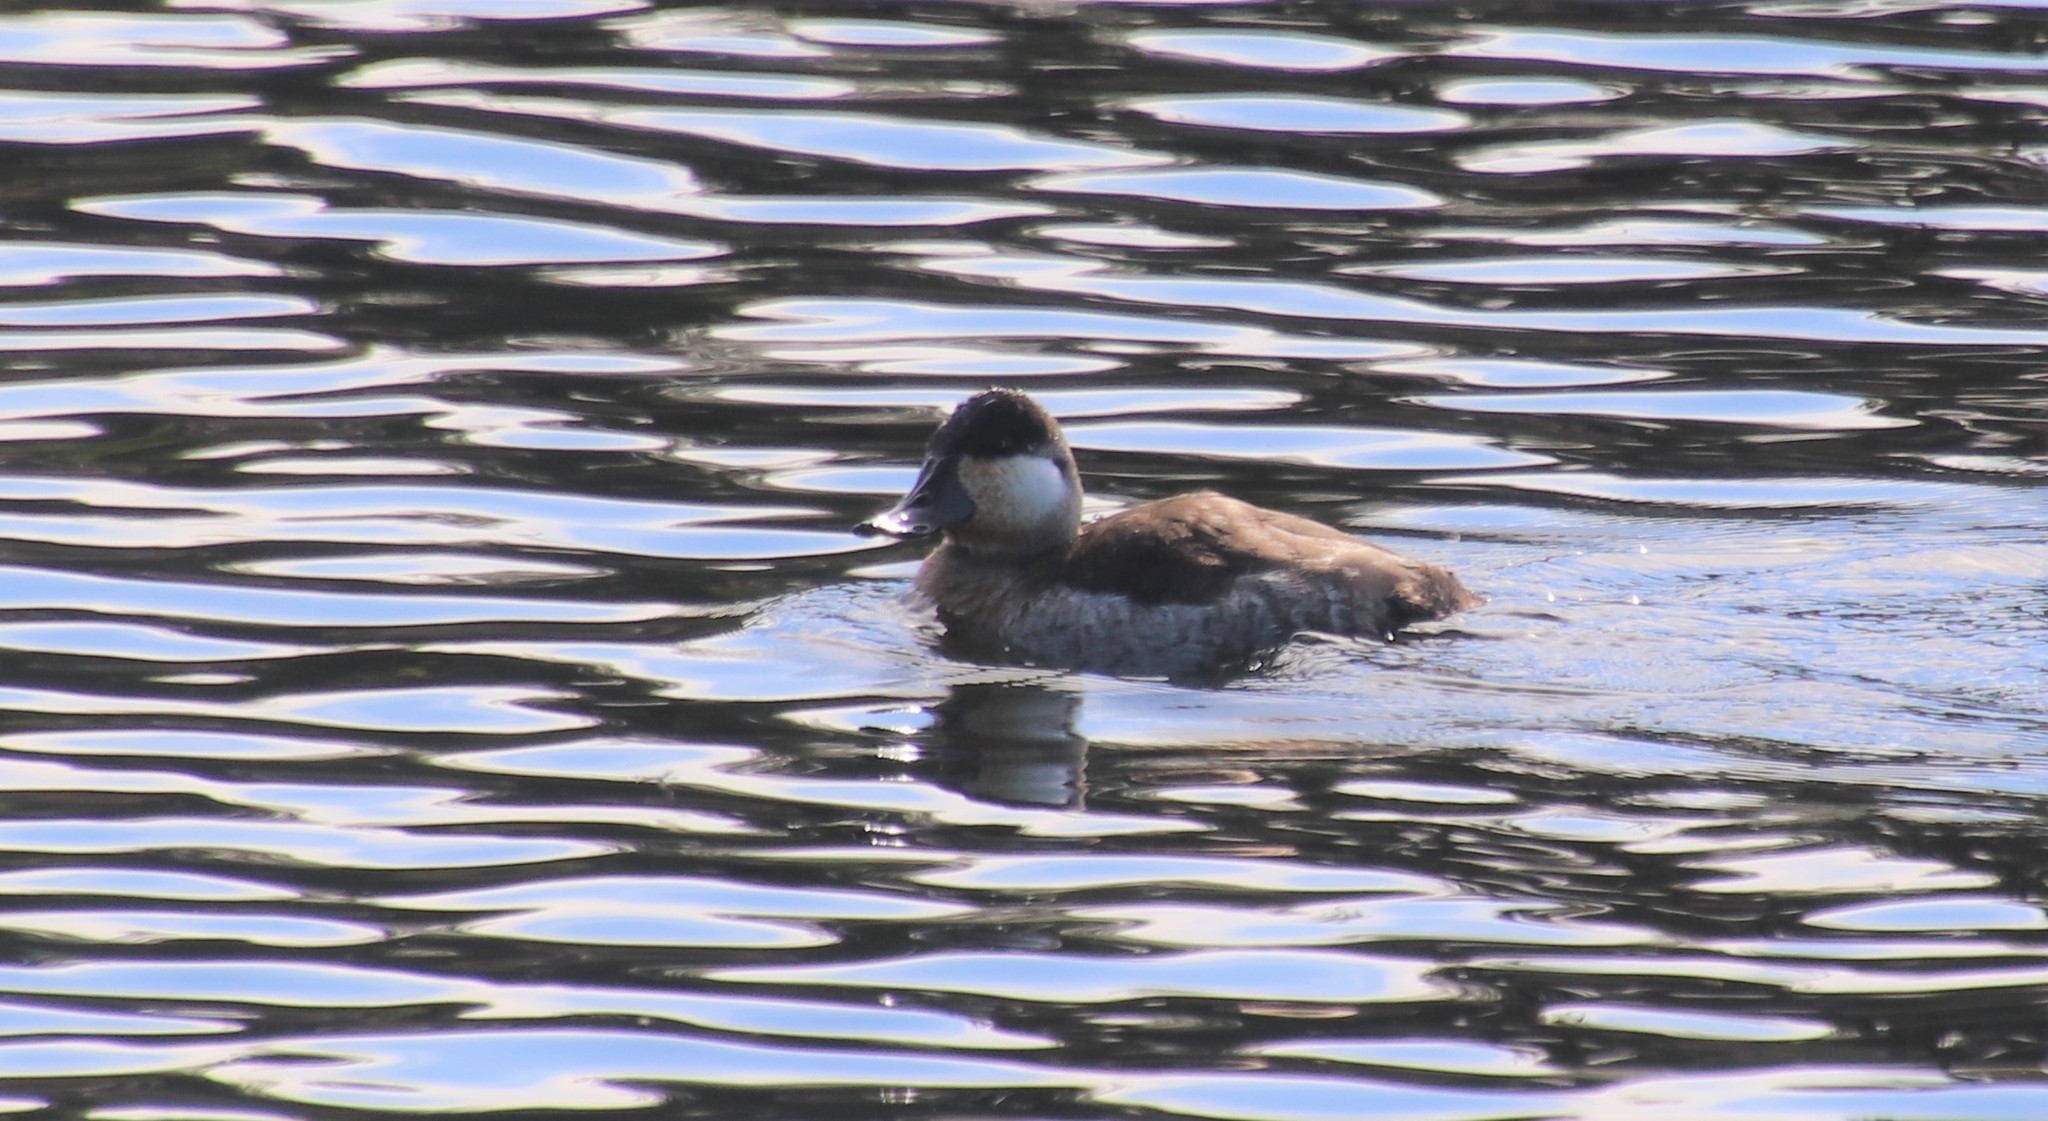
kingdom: Animalia
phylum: Chordata
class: Aves
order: Anseriformes
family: Anatidae
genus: Oxyura
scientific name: Oxyura jamaicensis
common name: Ruddy duck
